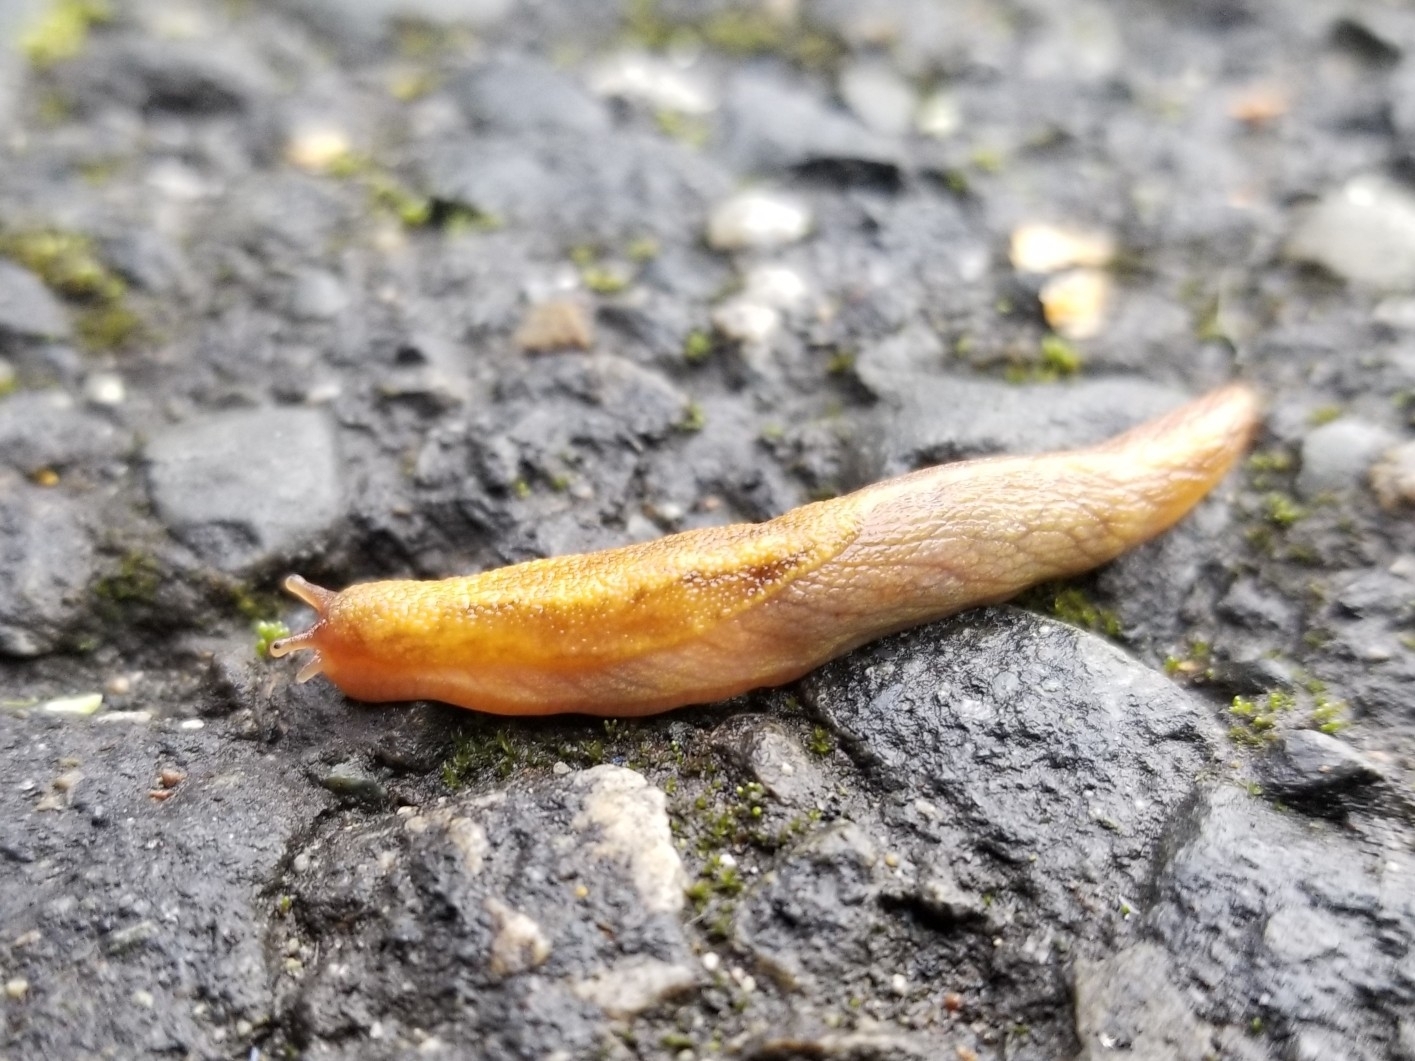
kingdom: Animalia
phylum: Mollusca
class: Gastropoda
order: Stylommatophora
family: Ariolimacidae
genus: Prophysaon
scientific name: Prophysaon andersonii
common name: Reticulate taildropper
